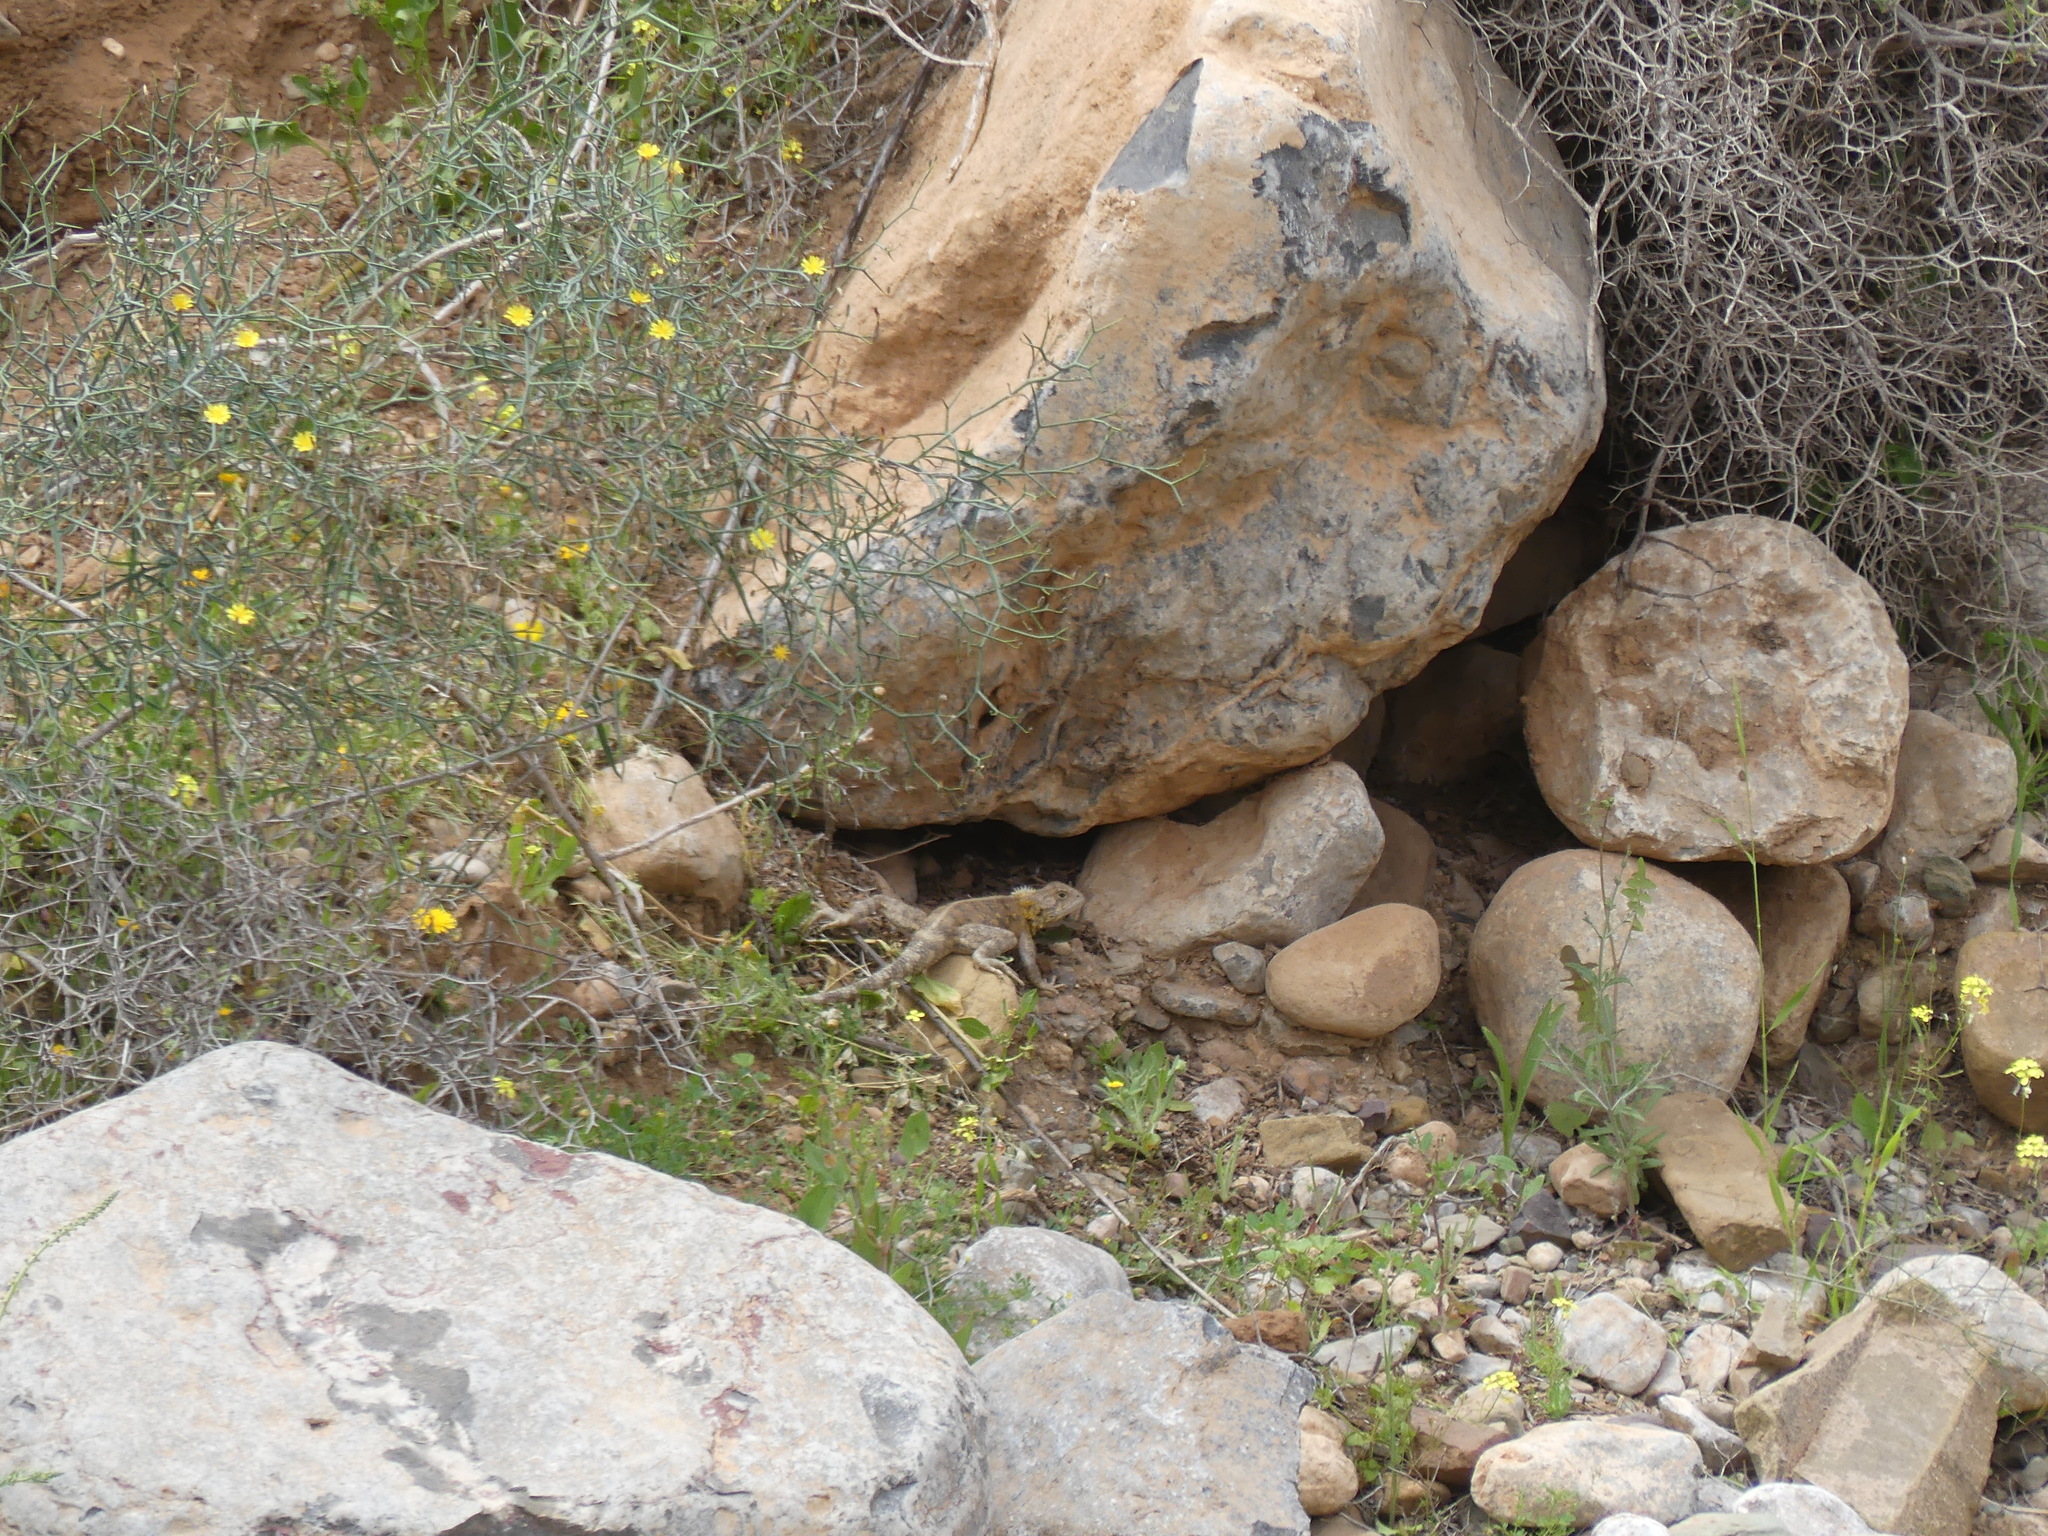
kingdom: Animalia
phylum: Chordata
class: Squamata
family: Agamidae
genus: Agama
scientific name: Agama impalearis
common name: Bibron's agama
